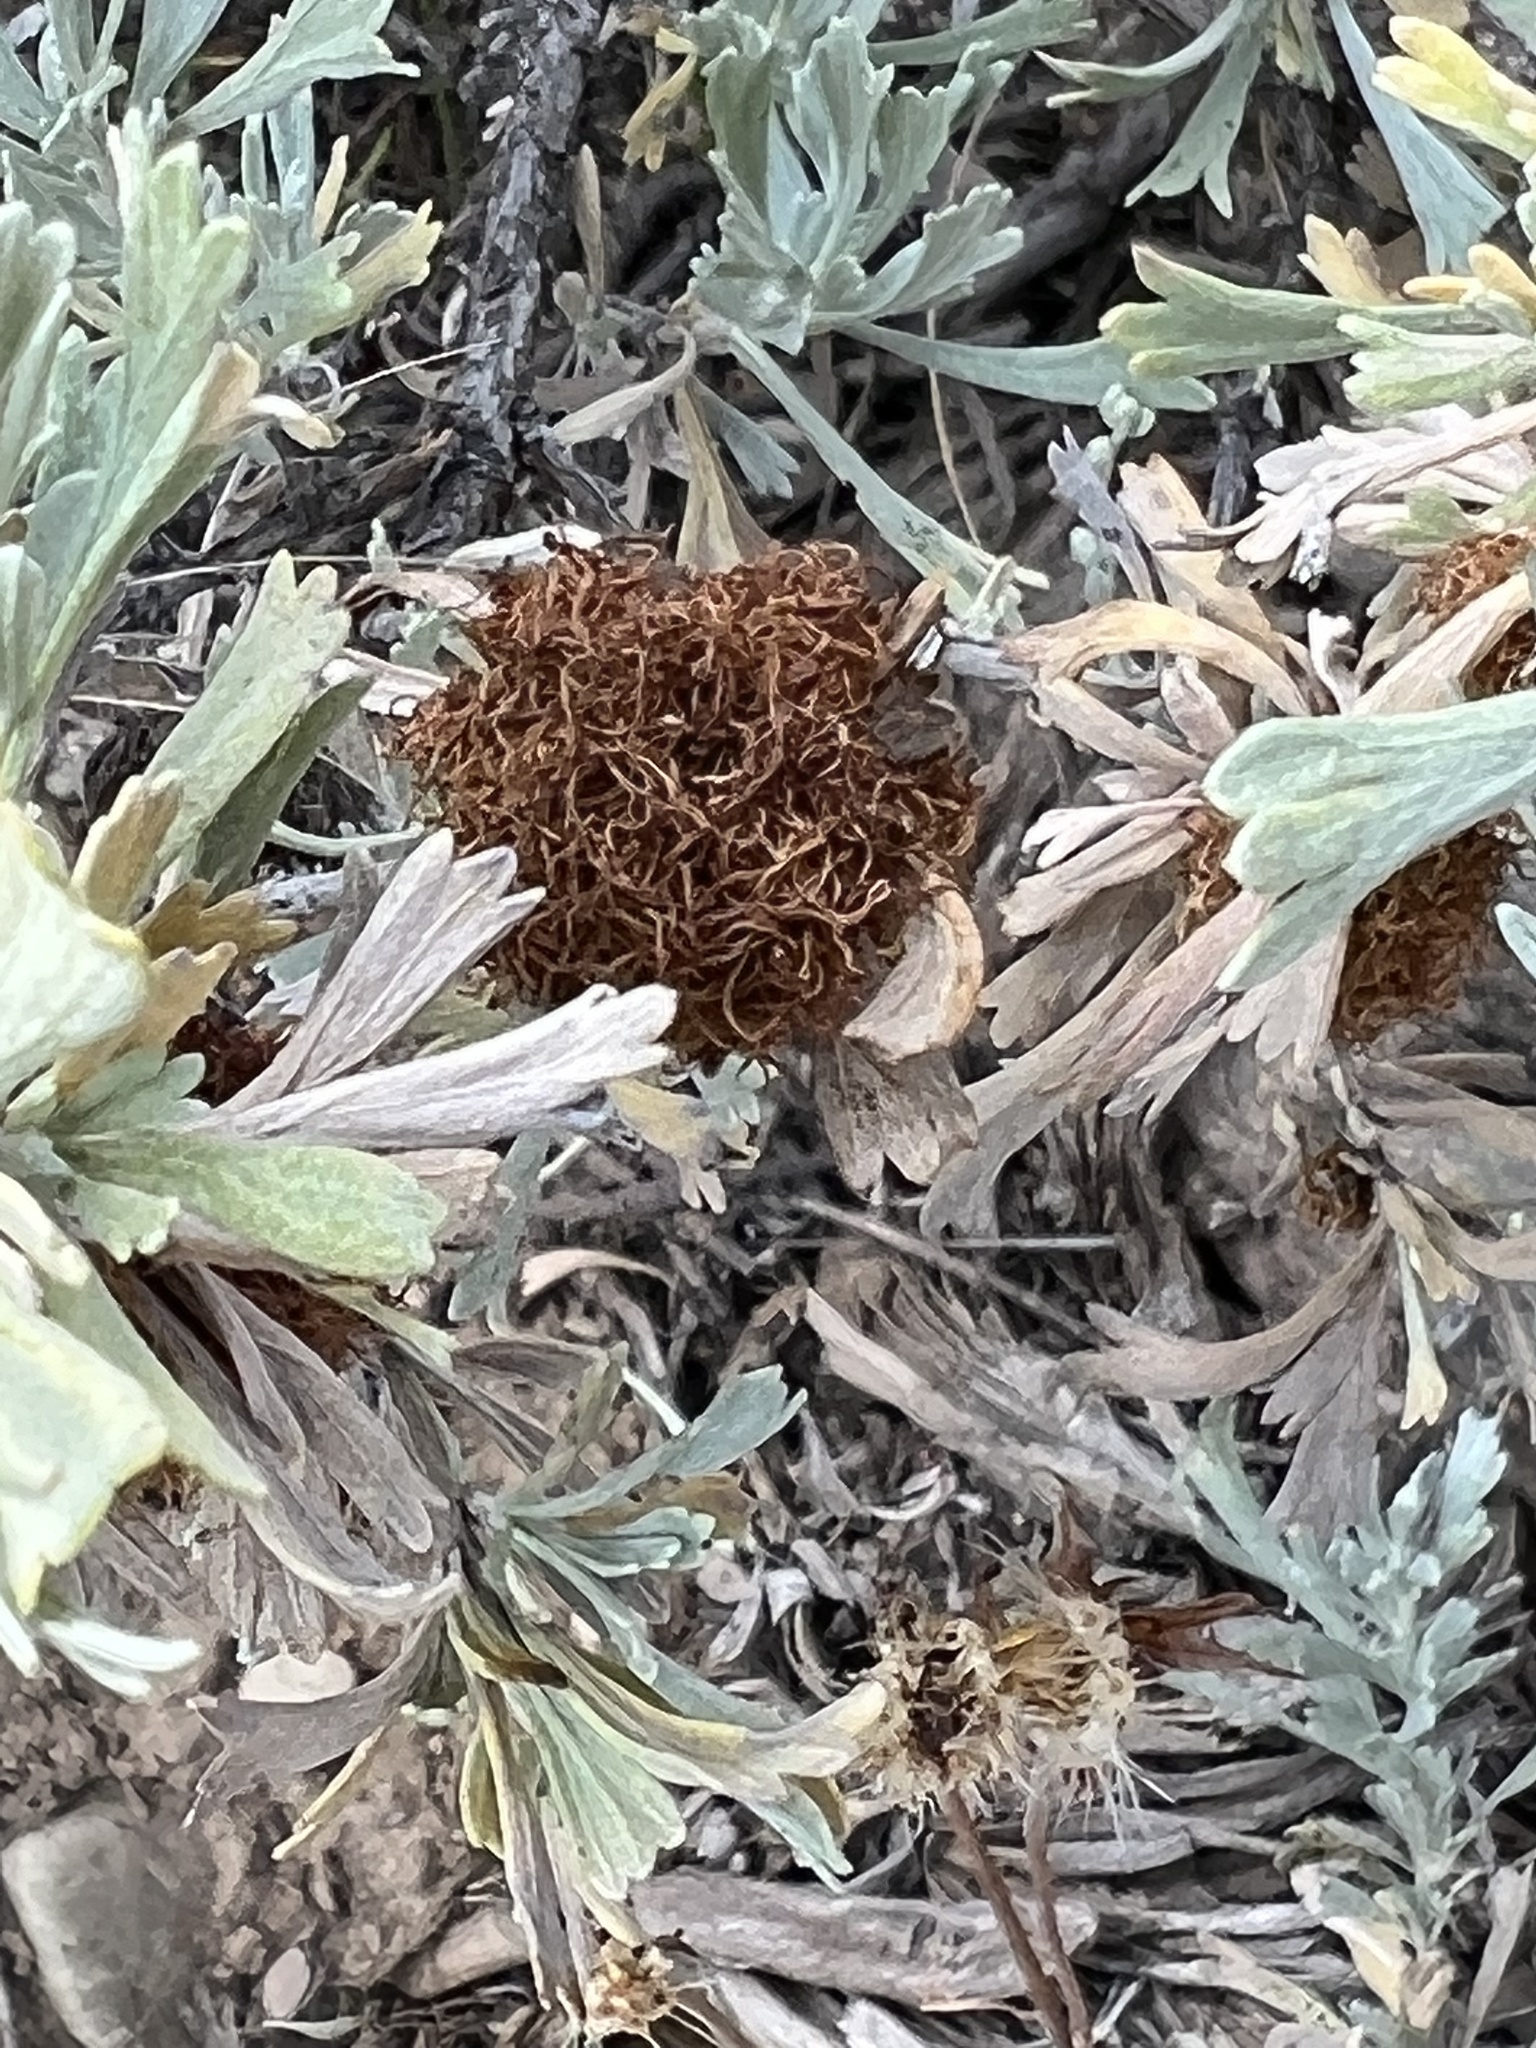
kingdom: Animalia
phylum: Arthropoda
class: Insecta
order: Diptera
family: Cecidomyiidae
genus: Rhopalomyia
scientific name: Rhopalomyia medusa
